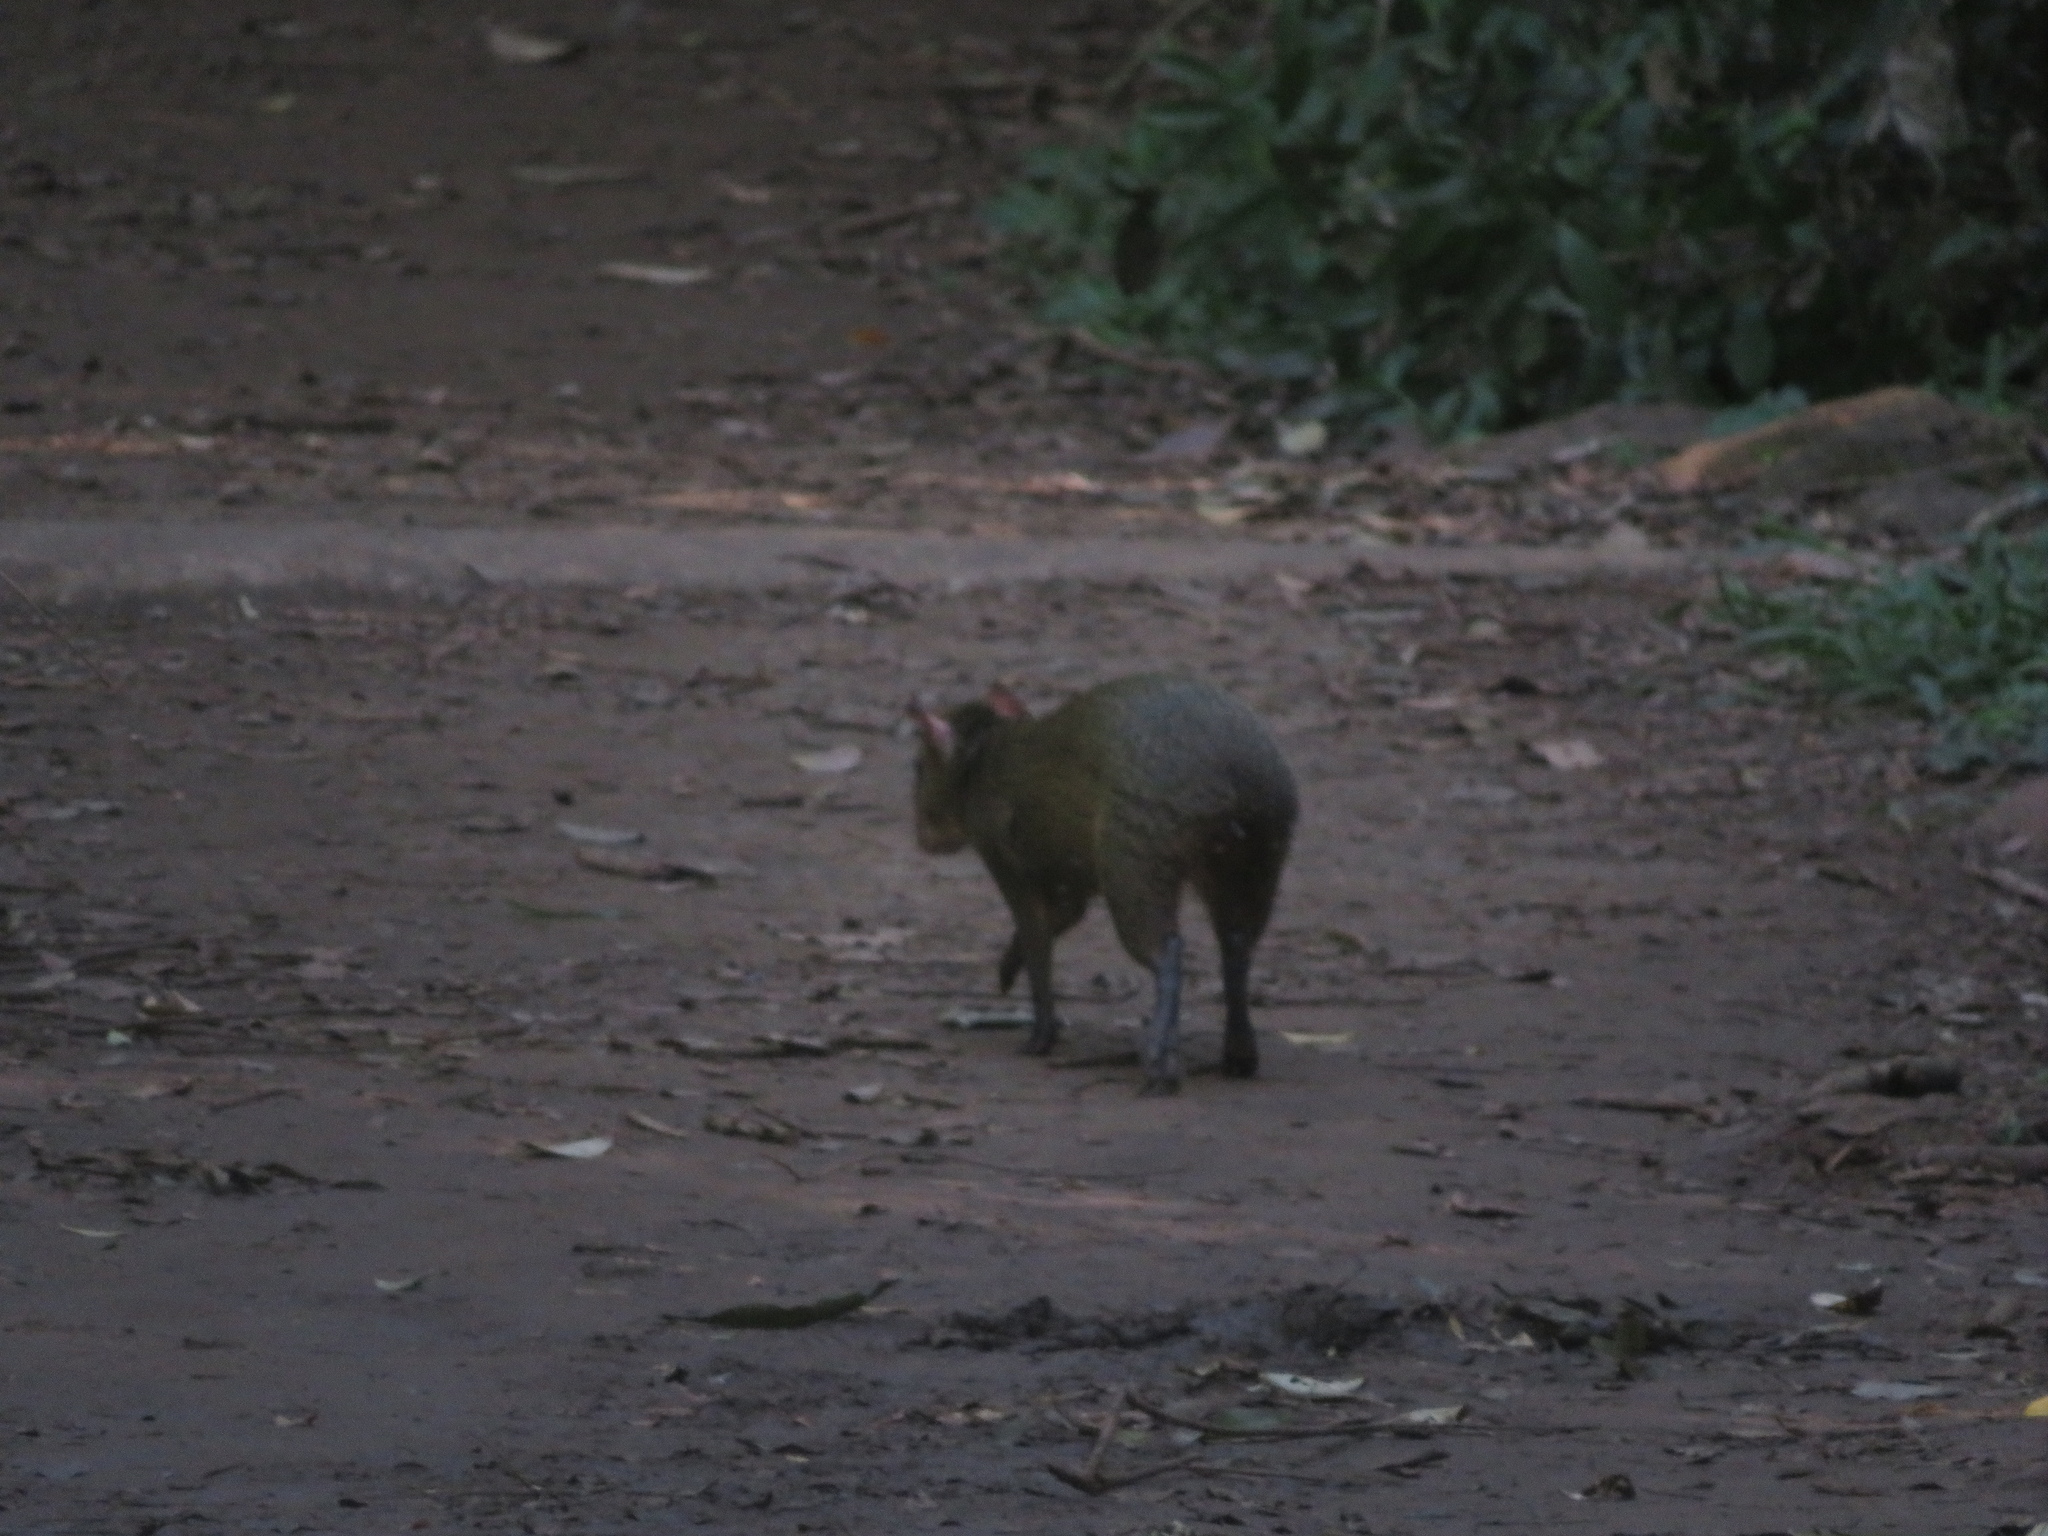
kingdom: Animalia
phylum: Chordata
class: Mammalia
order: Rodentia
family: Dasyproctidae
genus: Dasyprocta
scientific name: Dasyprocta azarae
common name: Azara's agouti
